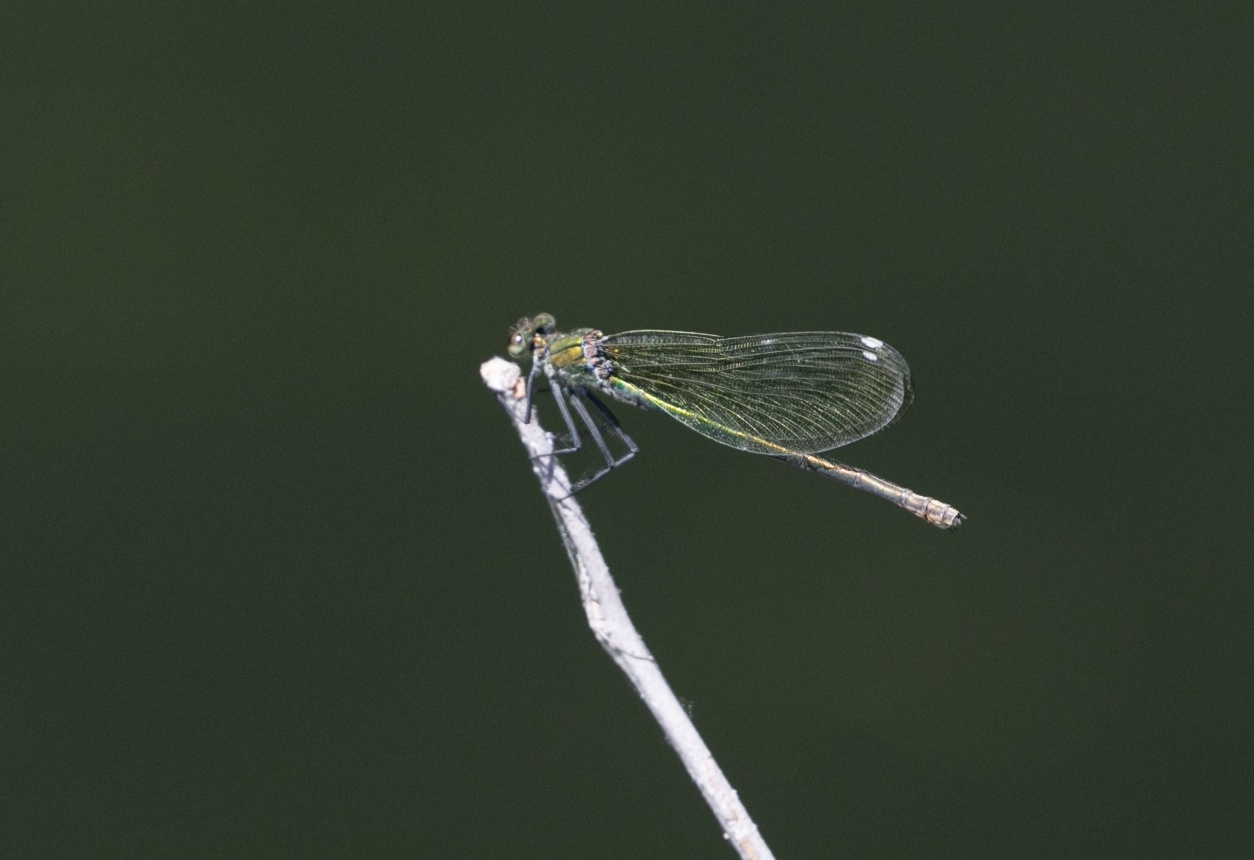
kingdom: Animalia
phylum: Arthropoda
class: Insecta
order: Odonata
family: Calopterygidae
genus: Calopteryx
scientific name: Calopteryx splendens
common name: Banded demoiselle
